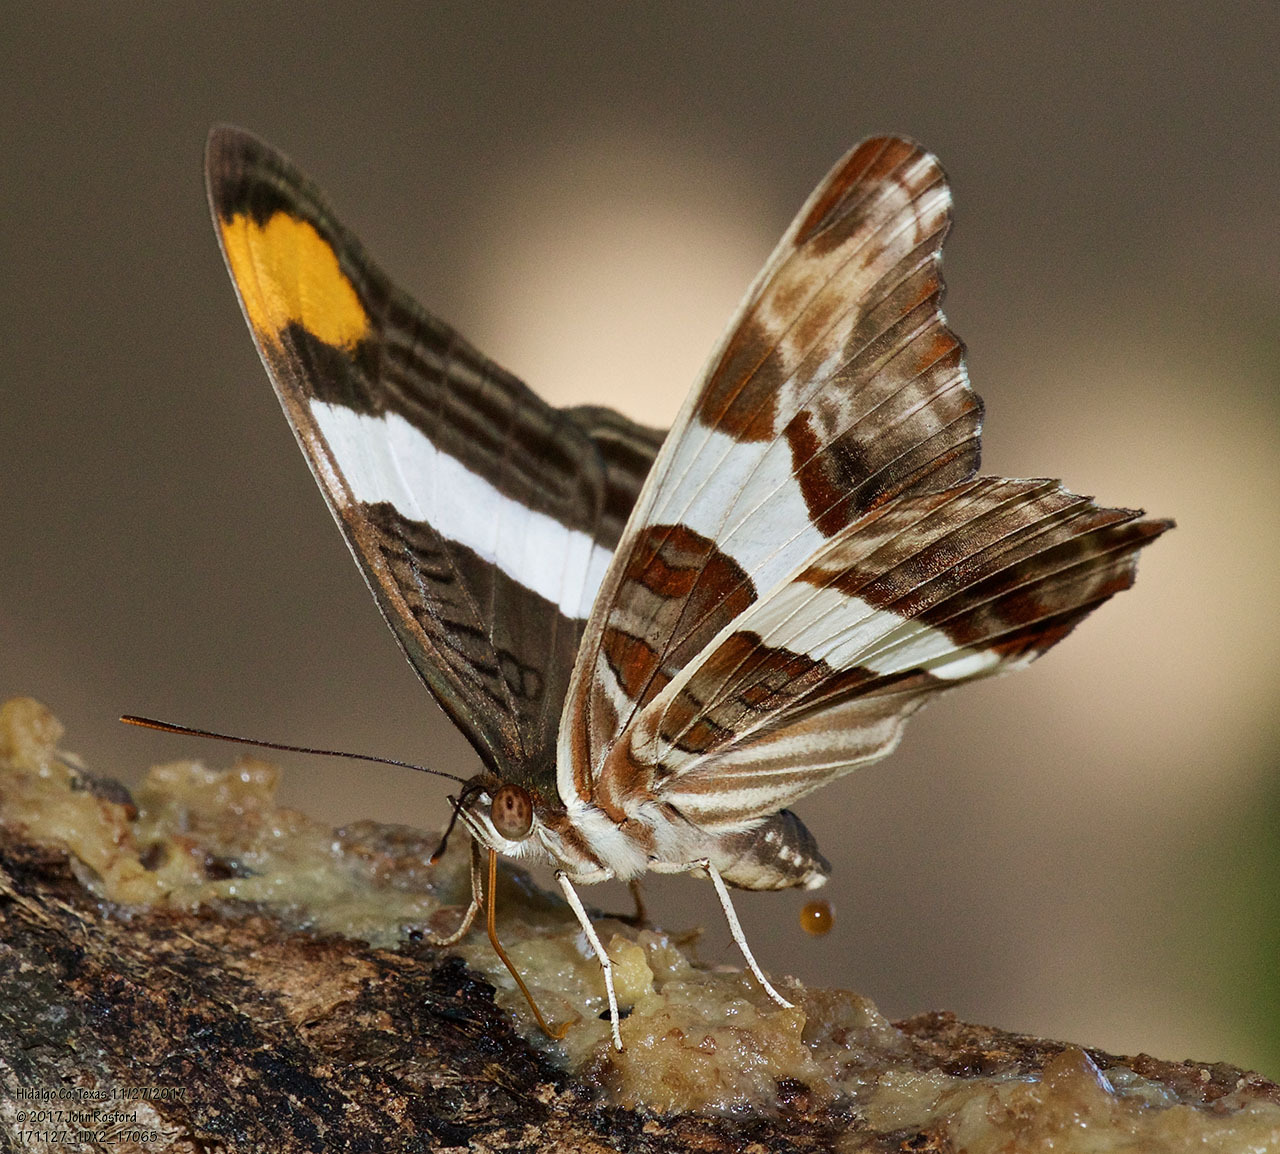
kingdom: Animalia
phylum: Arthropoda
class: Insecta
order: Lepidoptera
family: Nymphalidae
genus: Limenitis
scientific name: Limenitis fessonia
